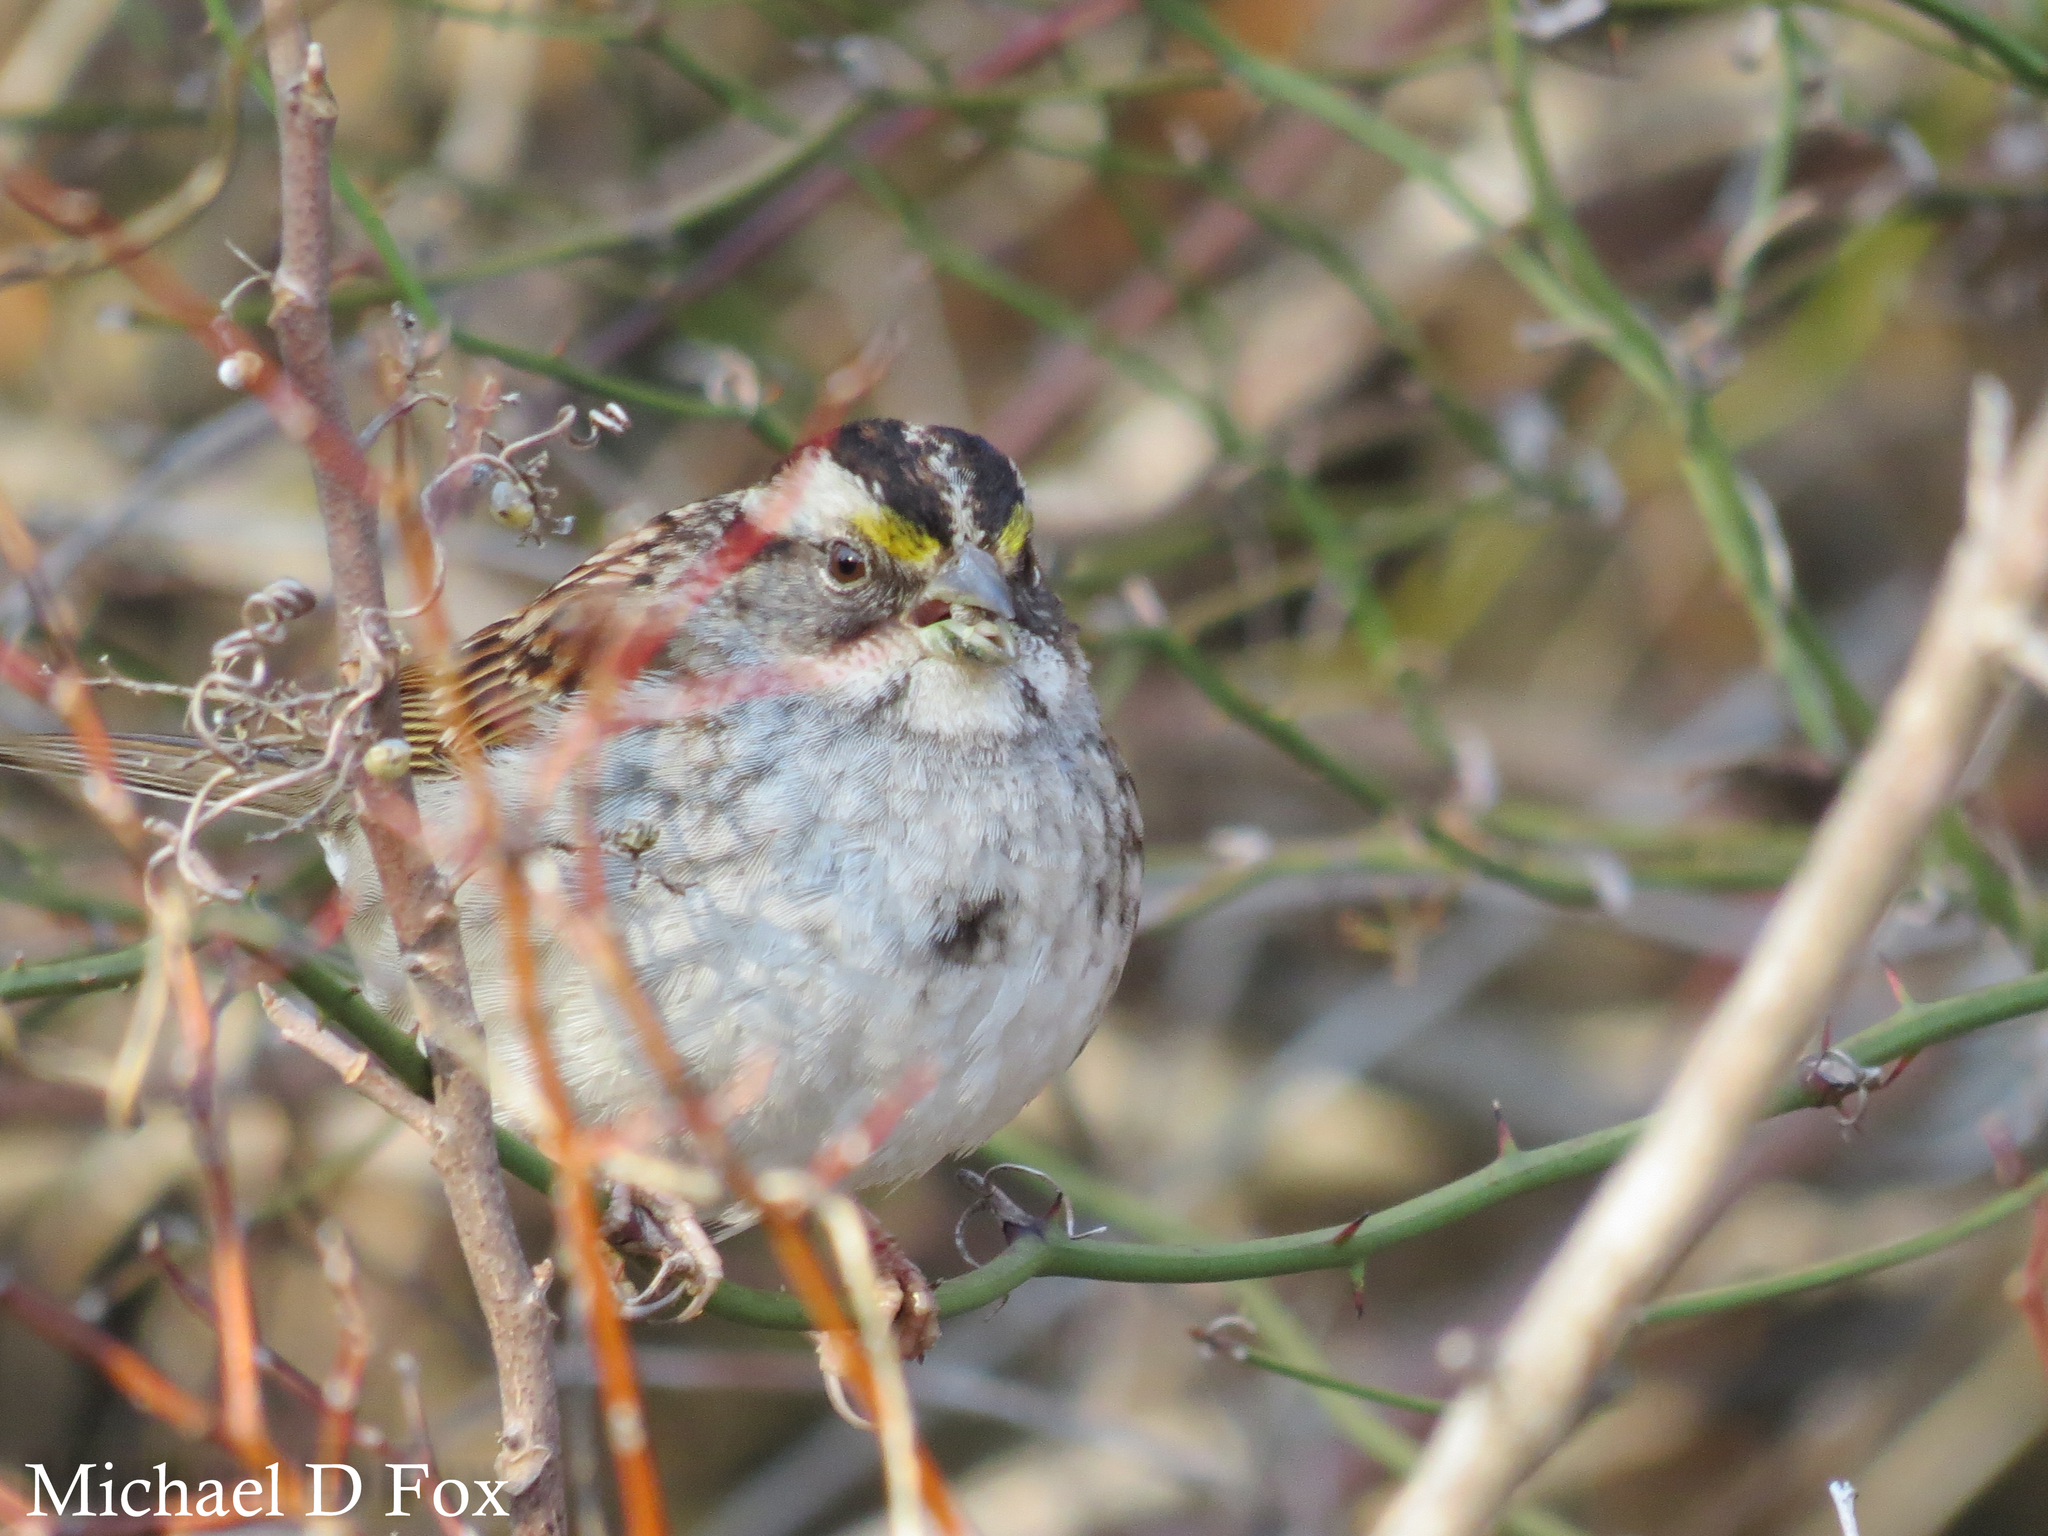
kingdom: Animalia
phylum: Chordata
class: Aves
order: Passeriformes
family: Passerellidae
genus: Zonotrichia
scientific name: Zonotrichia albicollis
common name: White-throated sparrow
